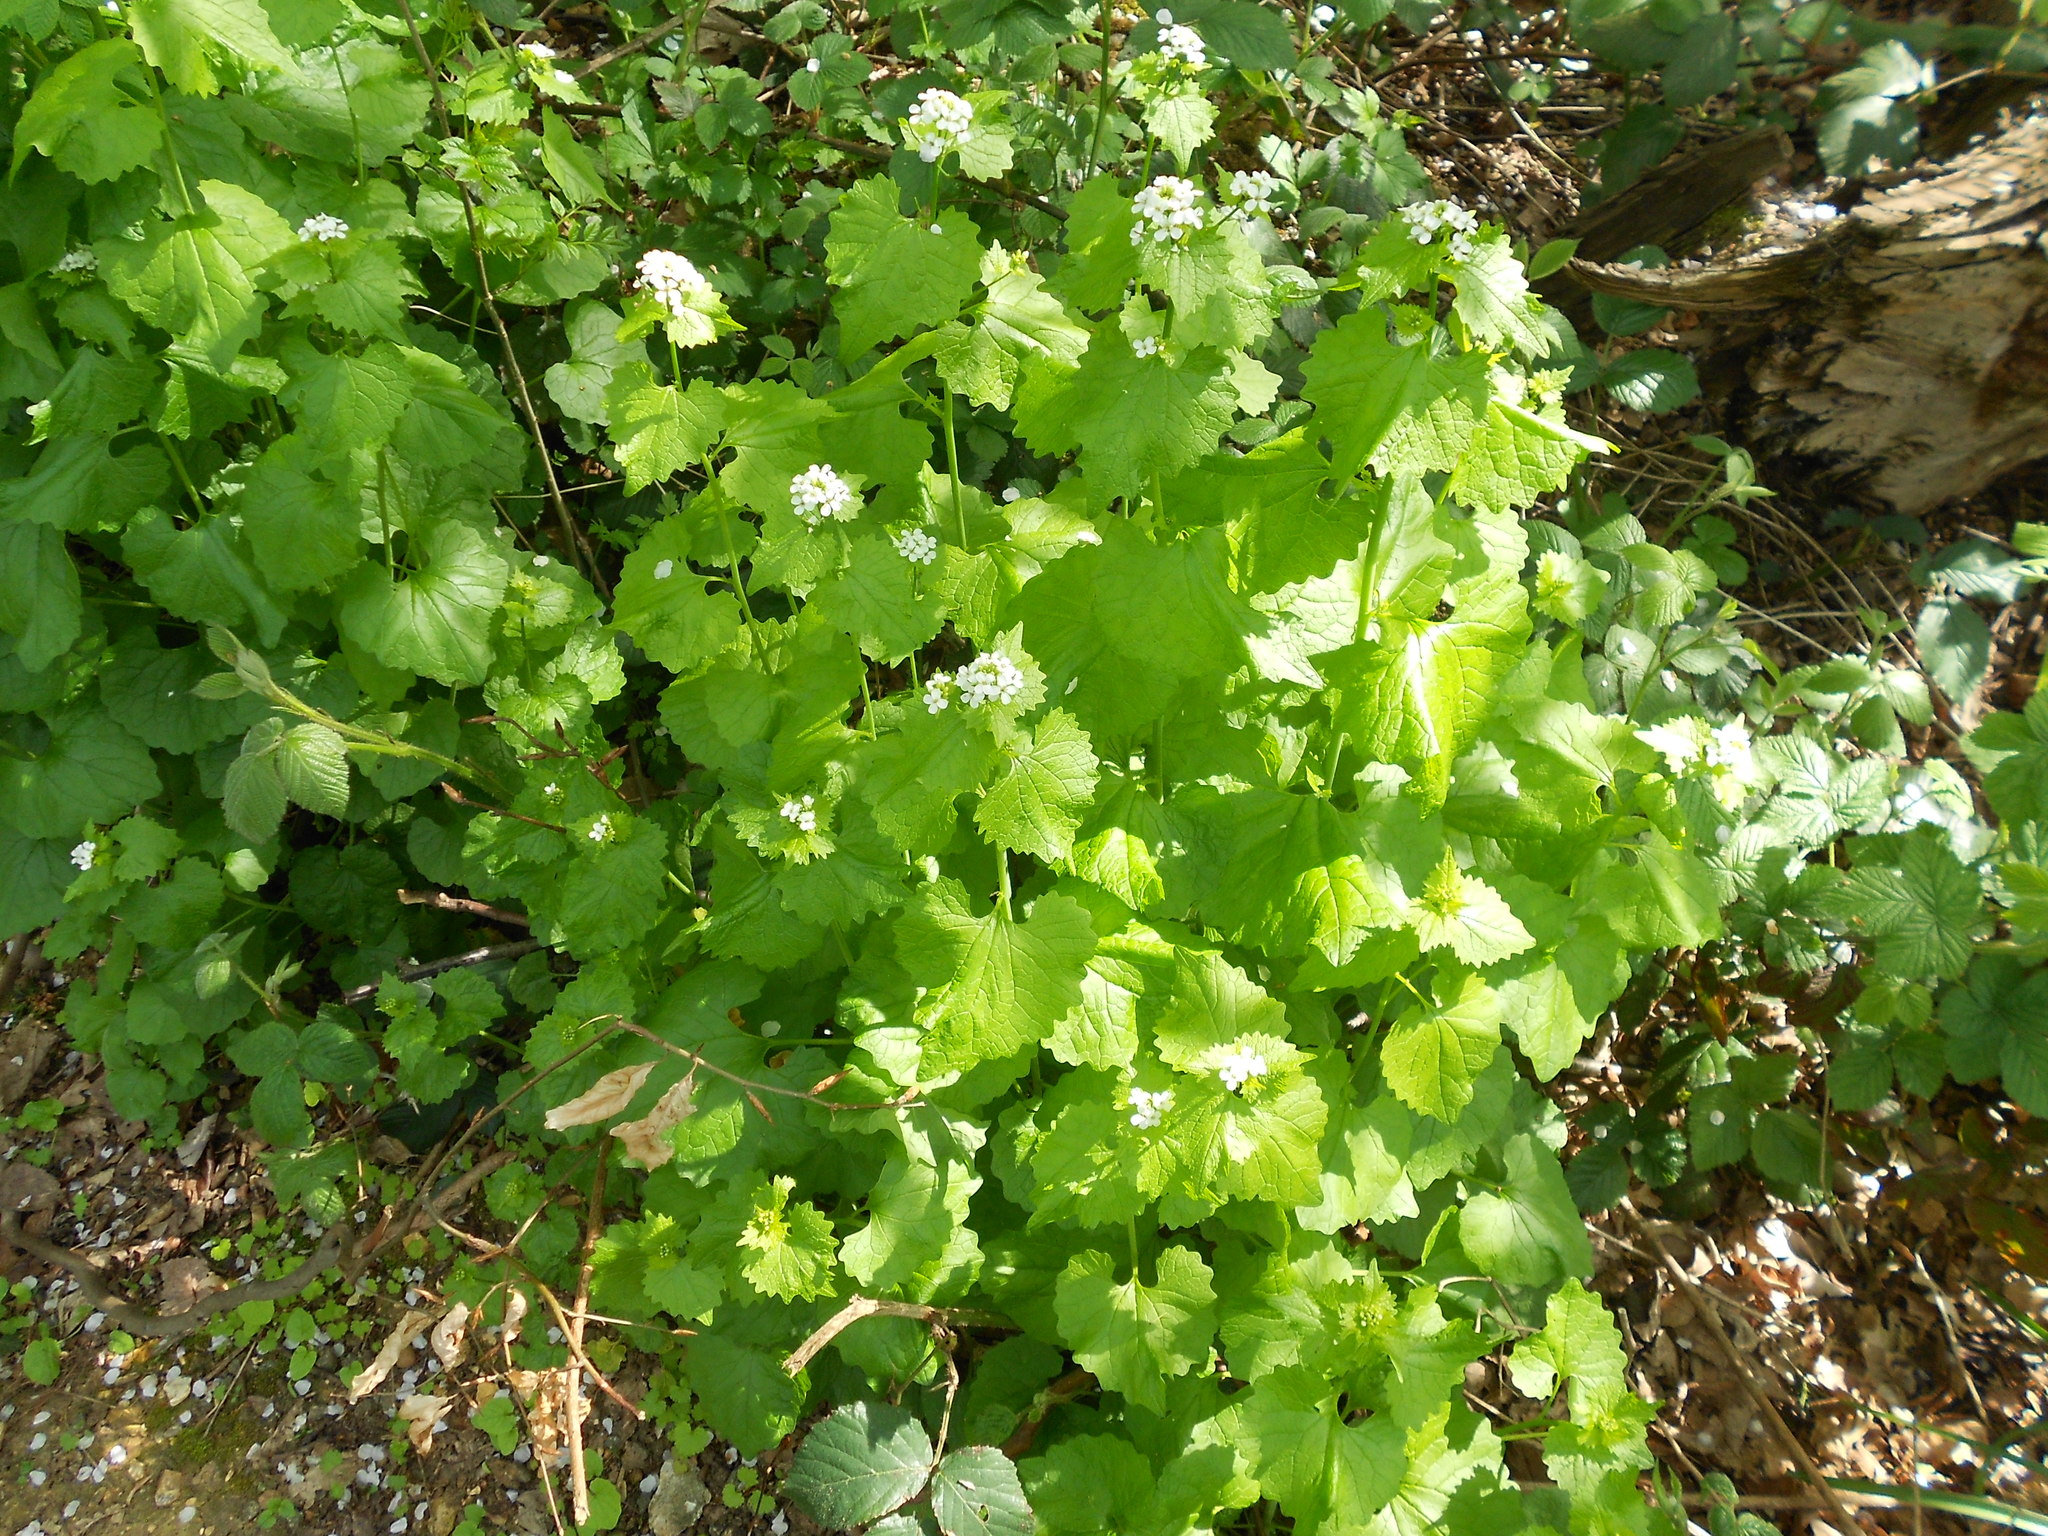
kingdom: Plantae
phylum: Tracheophyta
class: Magnoliopsida
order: Brassicales
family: Brassicaceae
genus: Alliaria
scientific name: Alliaria petiolata
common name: Garlic mustard
